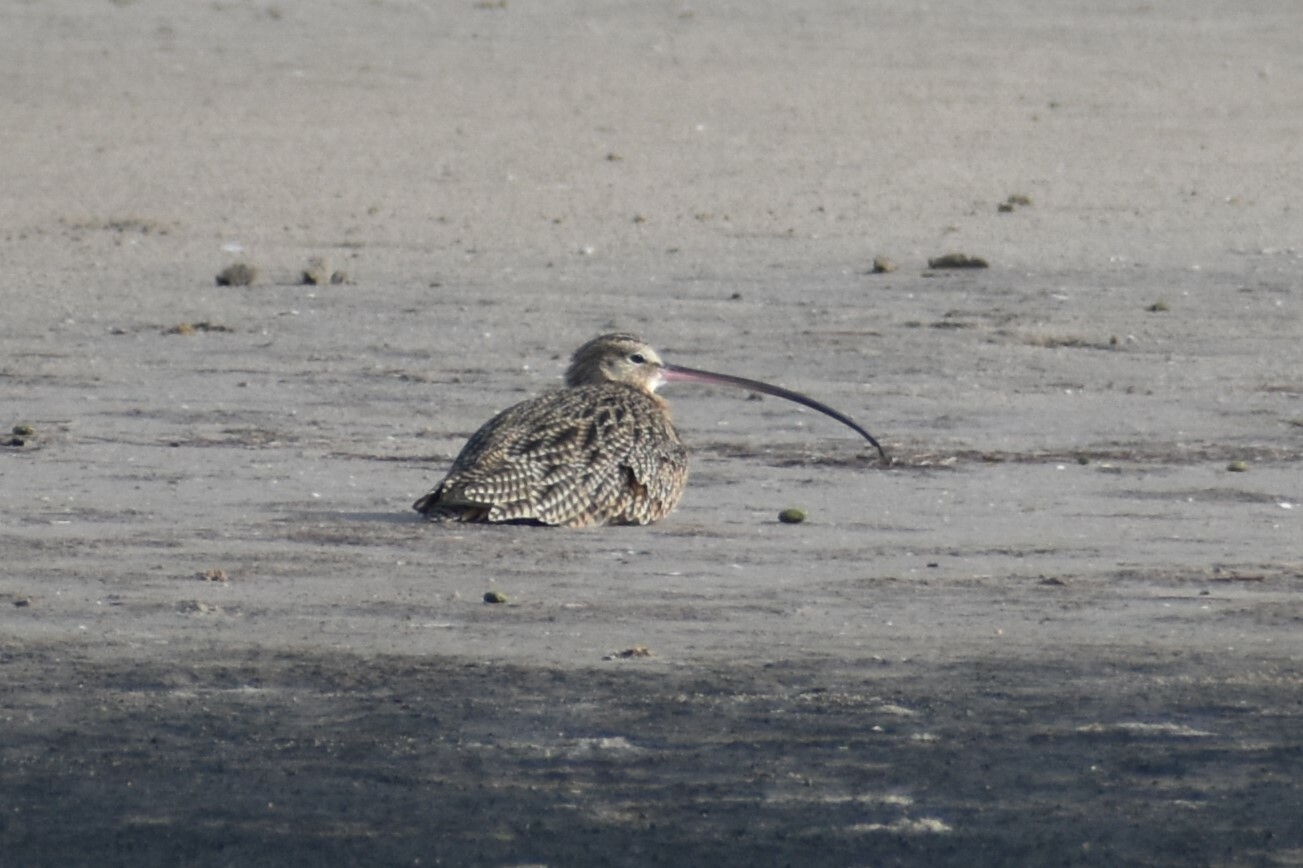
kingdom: Animalia
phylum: Chordata
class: Aves
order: Charadriiformes
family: Scolopacidae
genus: Numenius
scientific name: Numenius americanus
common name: Long-billed curlew
